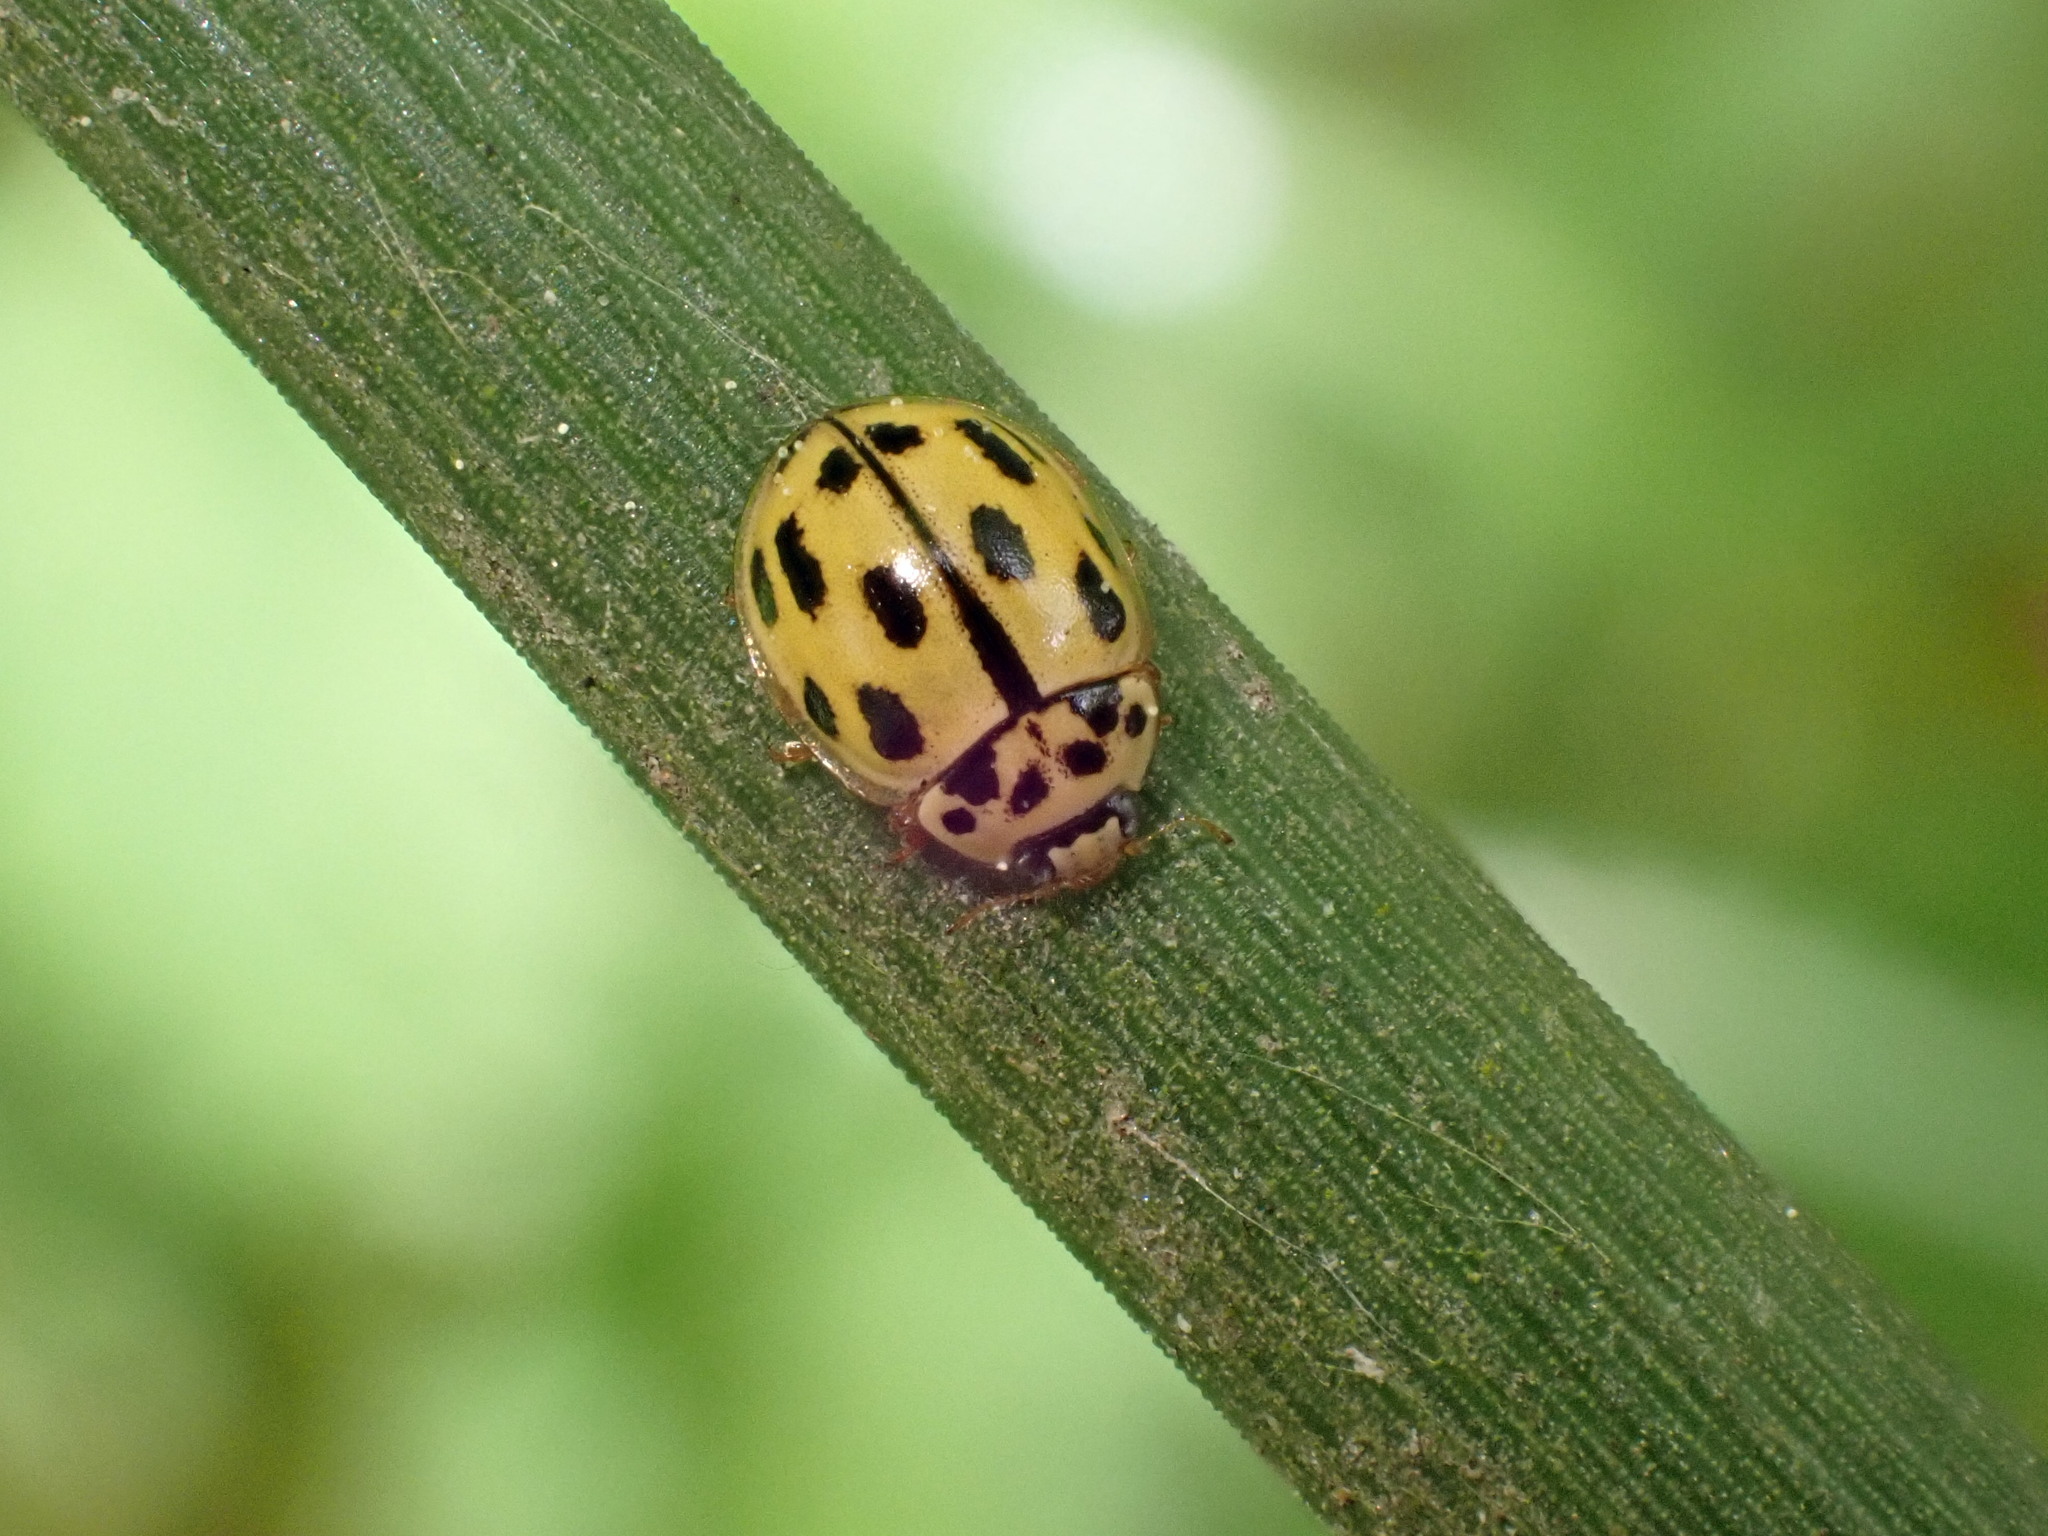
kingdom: Animalia
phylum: Arthropoda
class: Insecta
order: Coleoptera
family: Coccinellidae
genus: Propylaea
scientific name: Propylaea quatuordecimpunctata
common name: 14-spotted ladybird beetle
